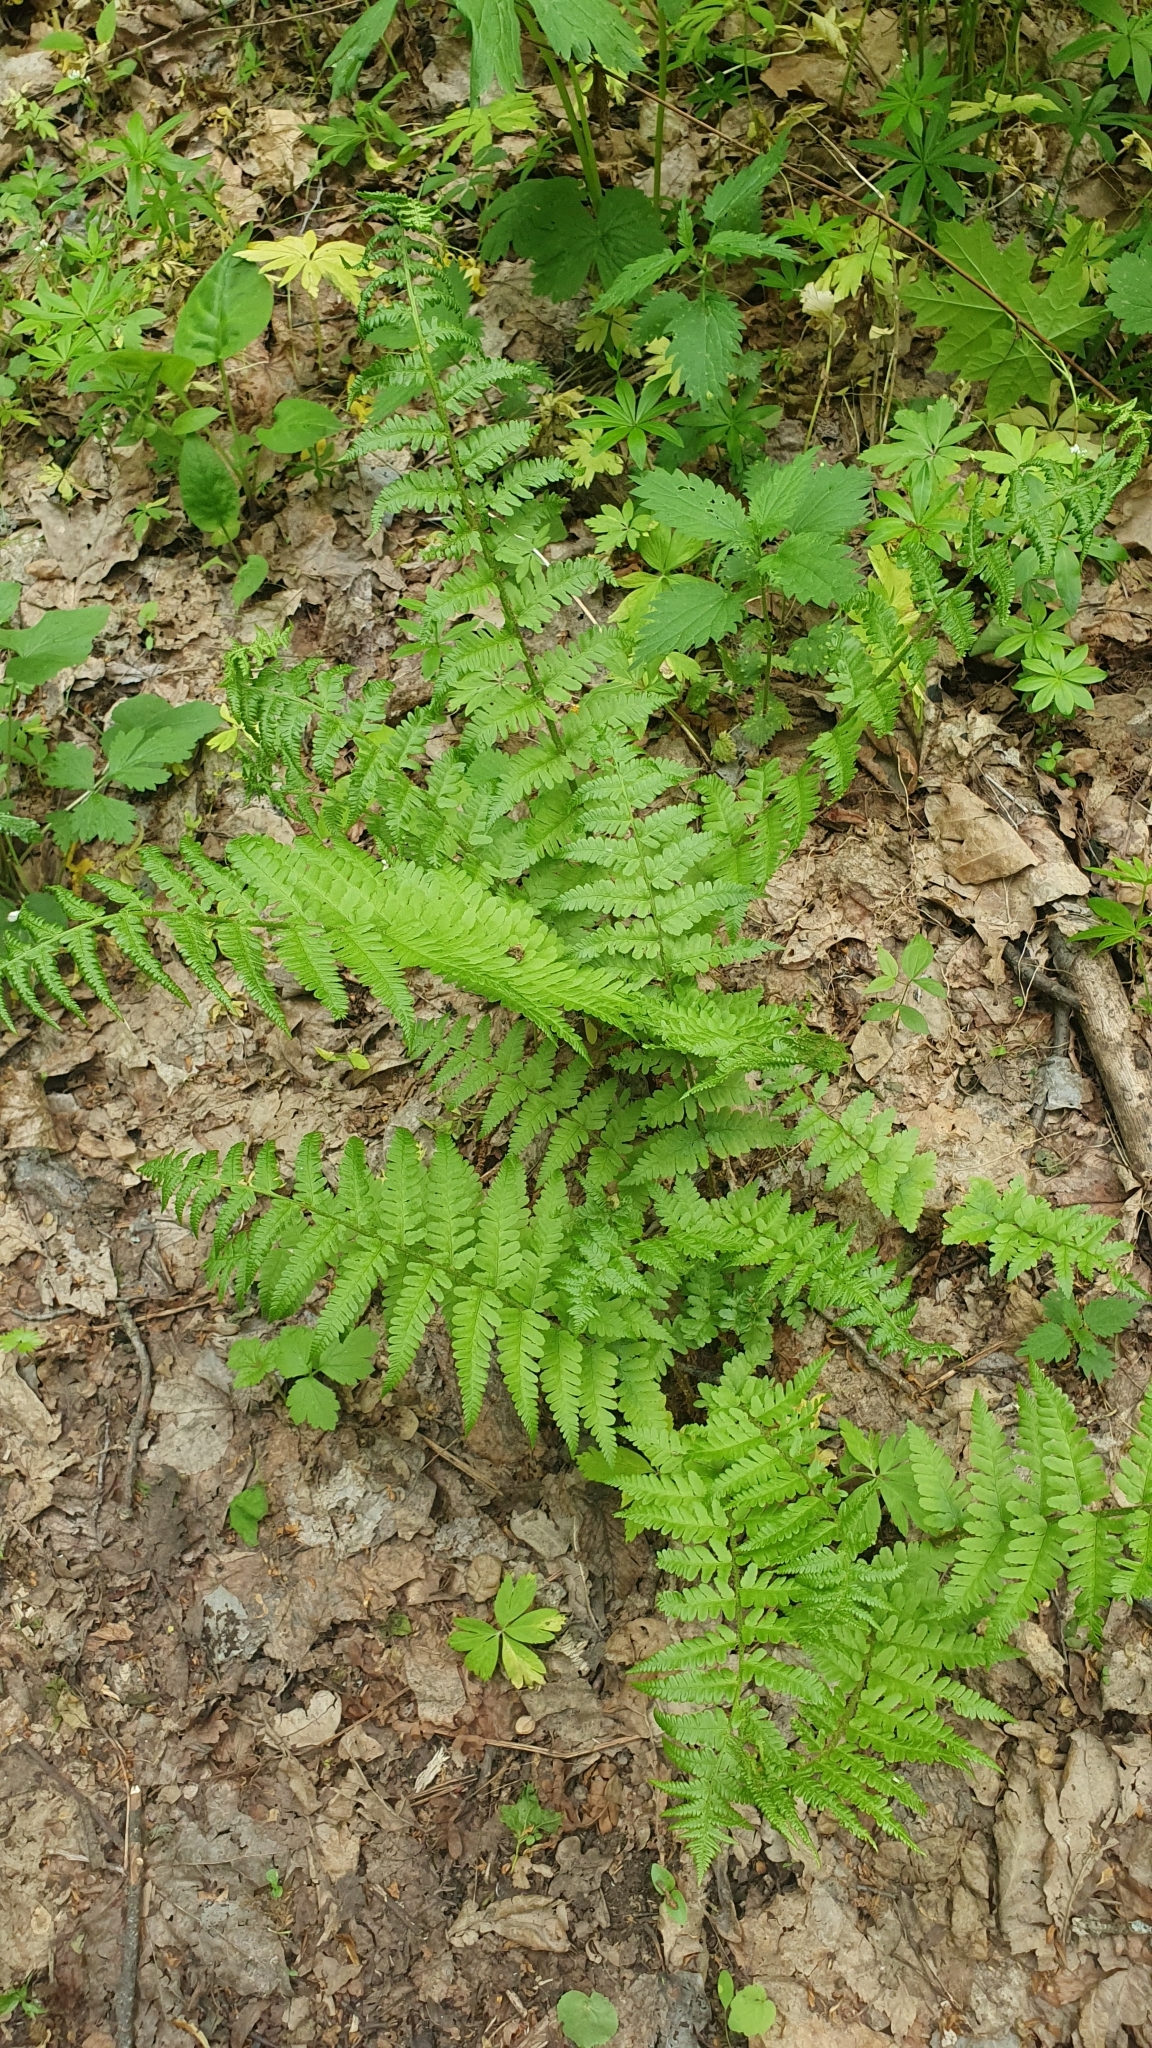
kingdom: Plantae
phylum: Tracheophyta
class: Polypodiopsida
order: Polypodiales
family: Dryopteridaceae
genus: Dryopteris
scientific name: Dryopteris filix-mas
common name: Male fern
